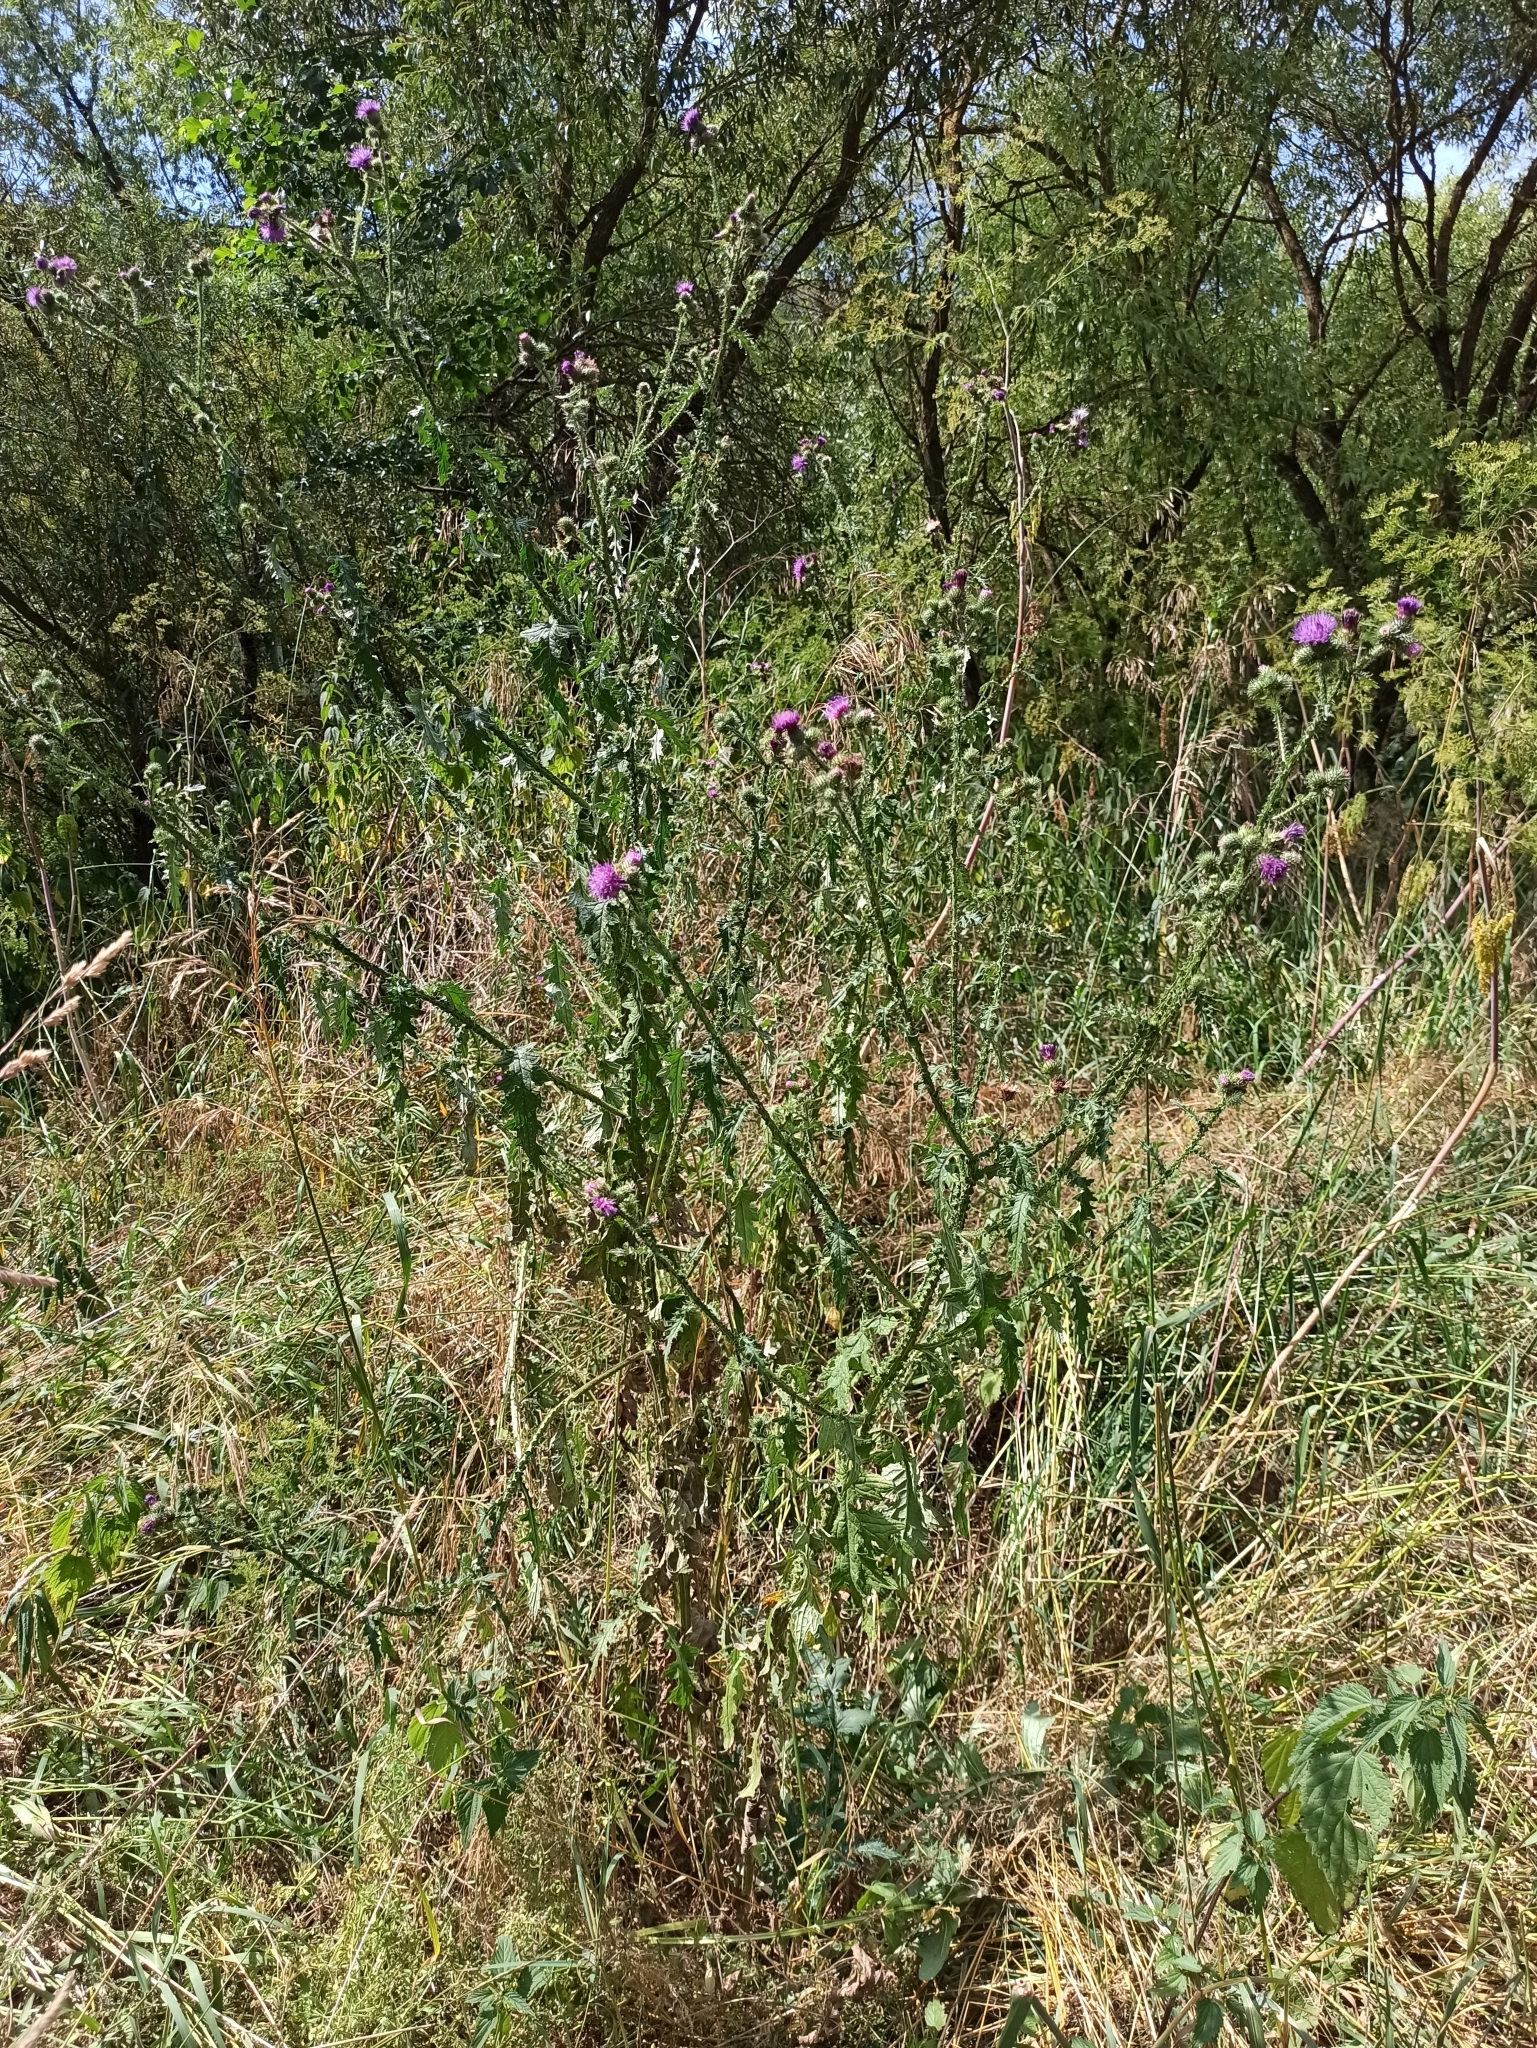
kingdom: Plantae
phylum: Tracheophyta
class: Magnoliopsida
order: Asterales
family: Asteraceae
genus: Carduus
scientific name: Carduus crispus
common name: Welted thistle
